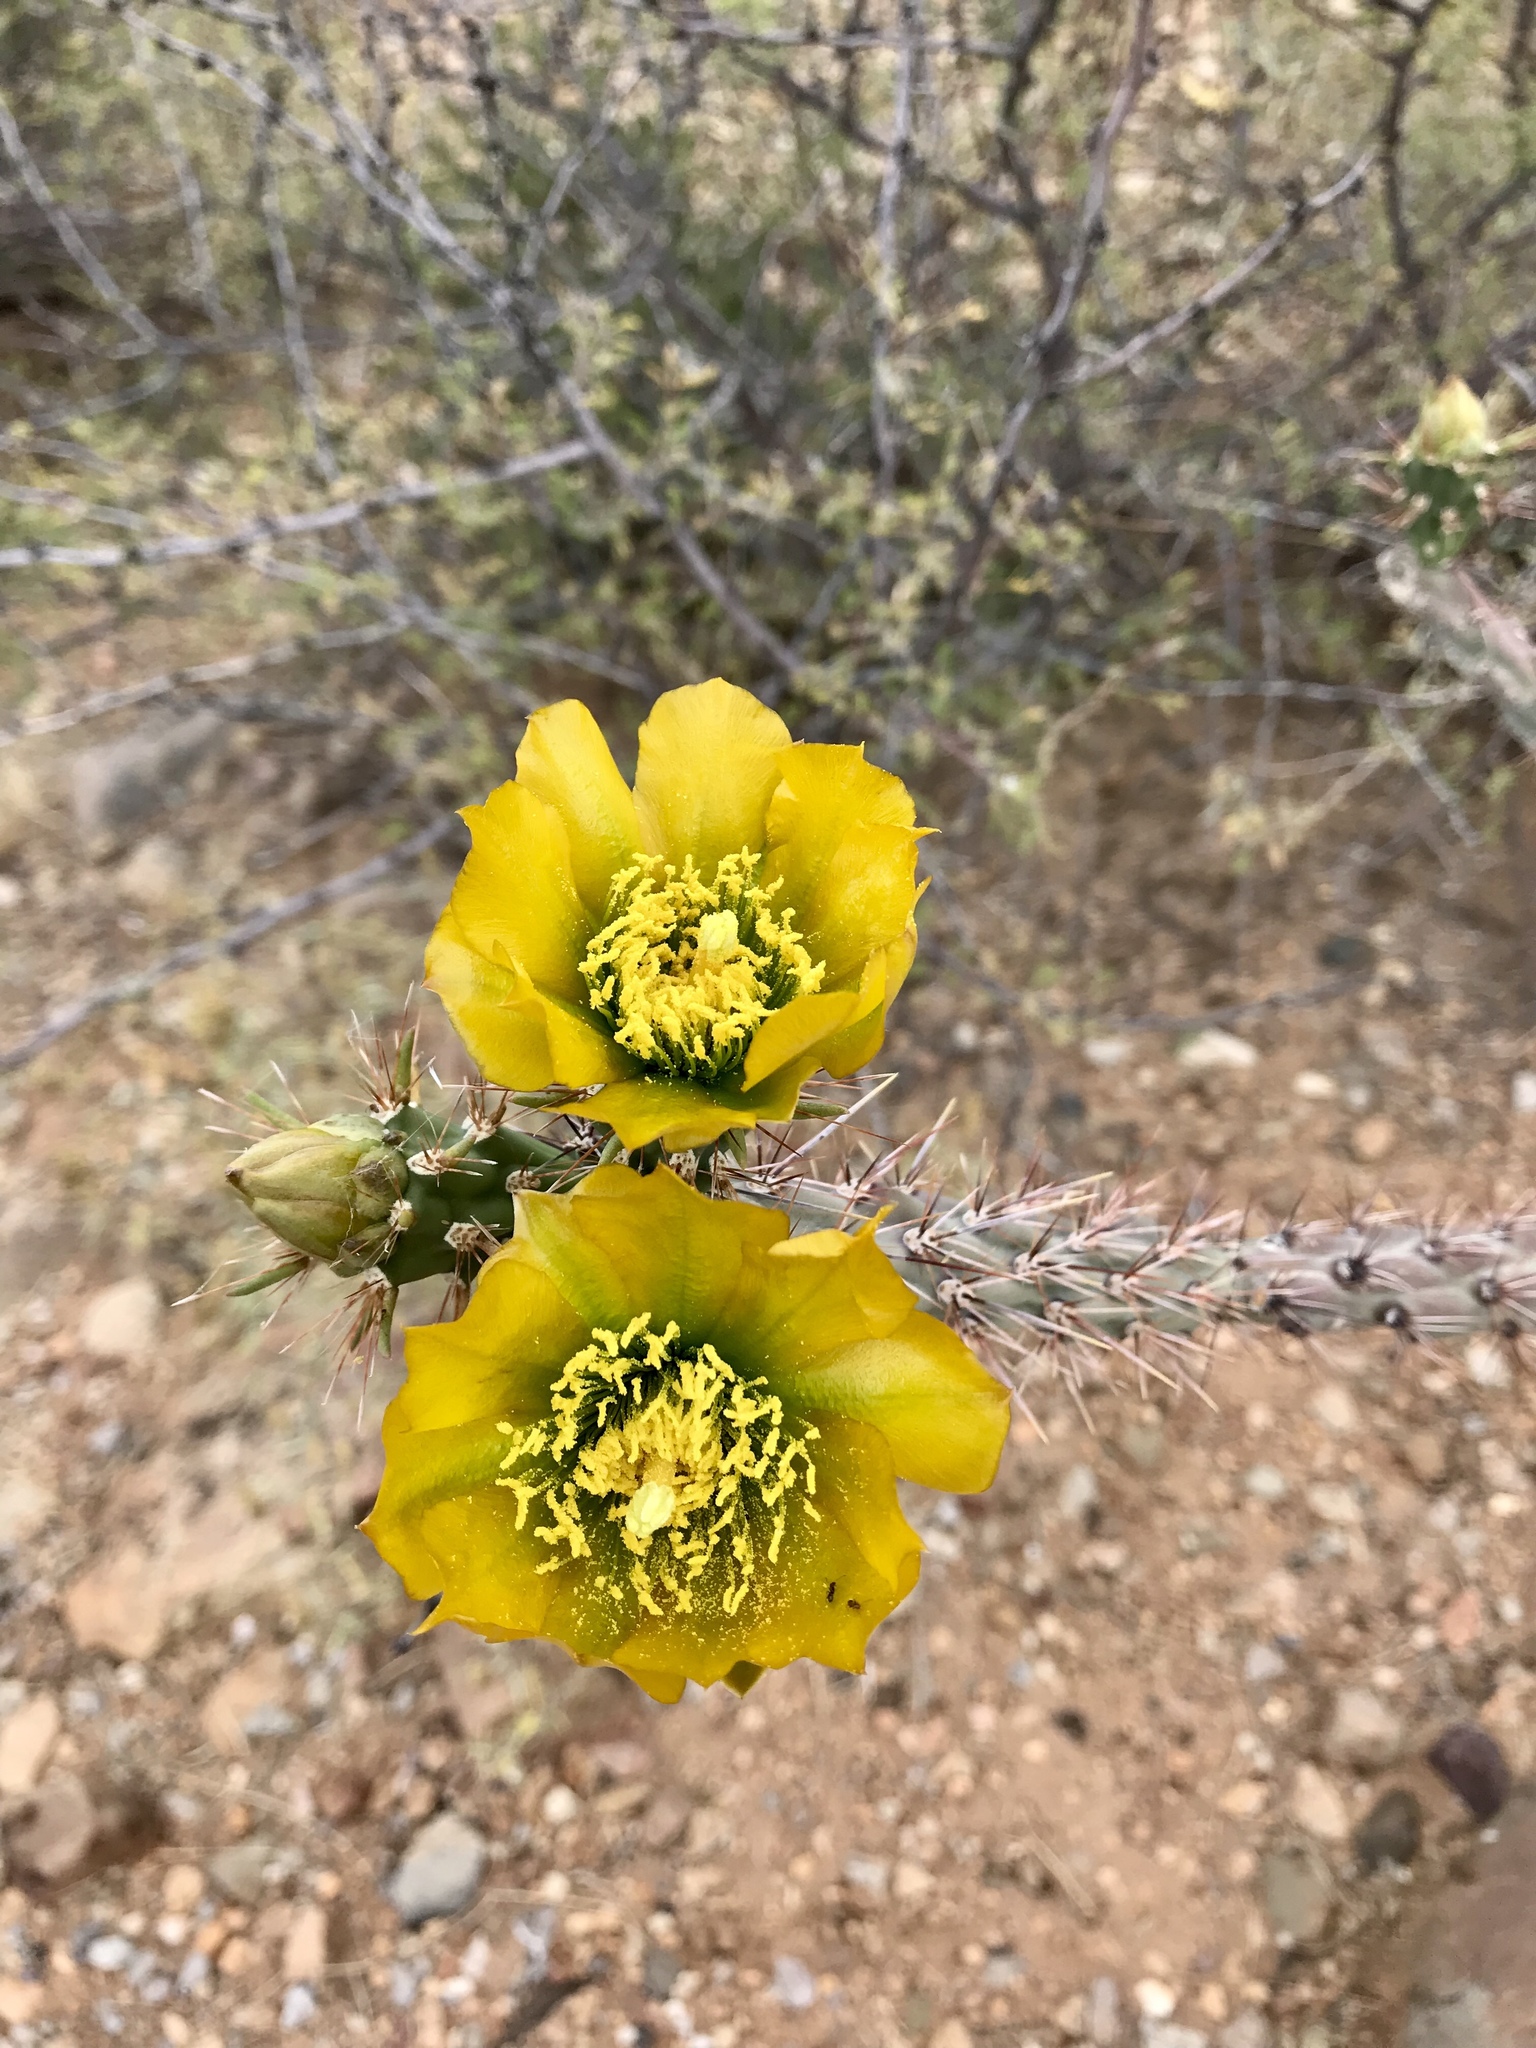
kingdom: Plantae
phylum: Tracheophyta
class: Magnoliopsida
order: Caryophyllales
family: Cactaceae
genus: Cylindropuntia
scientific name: Cylindropuntia thurberi
